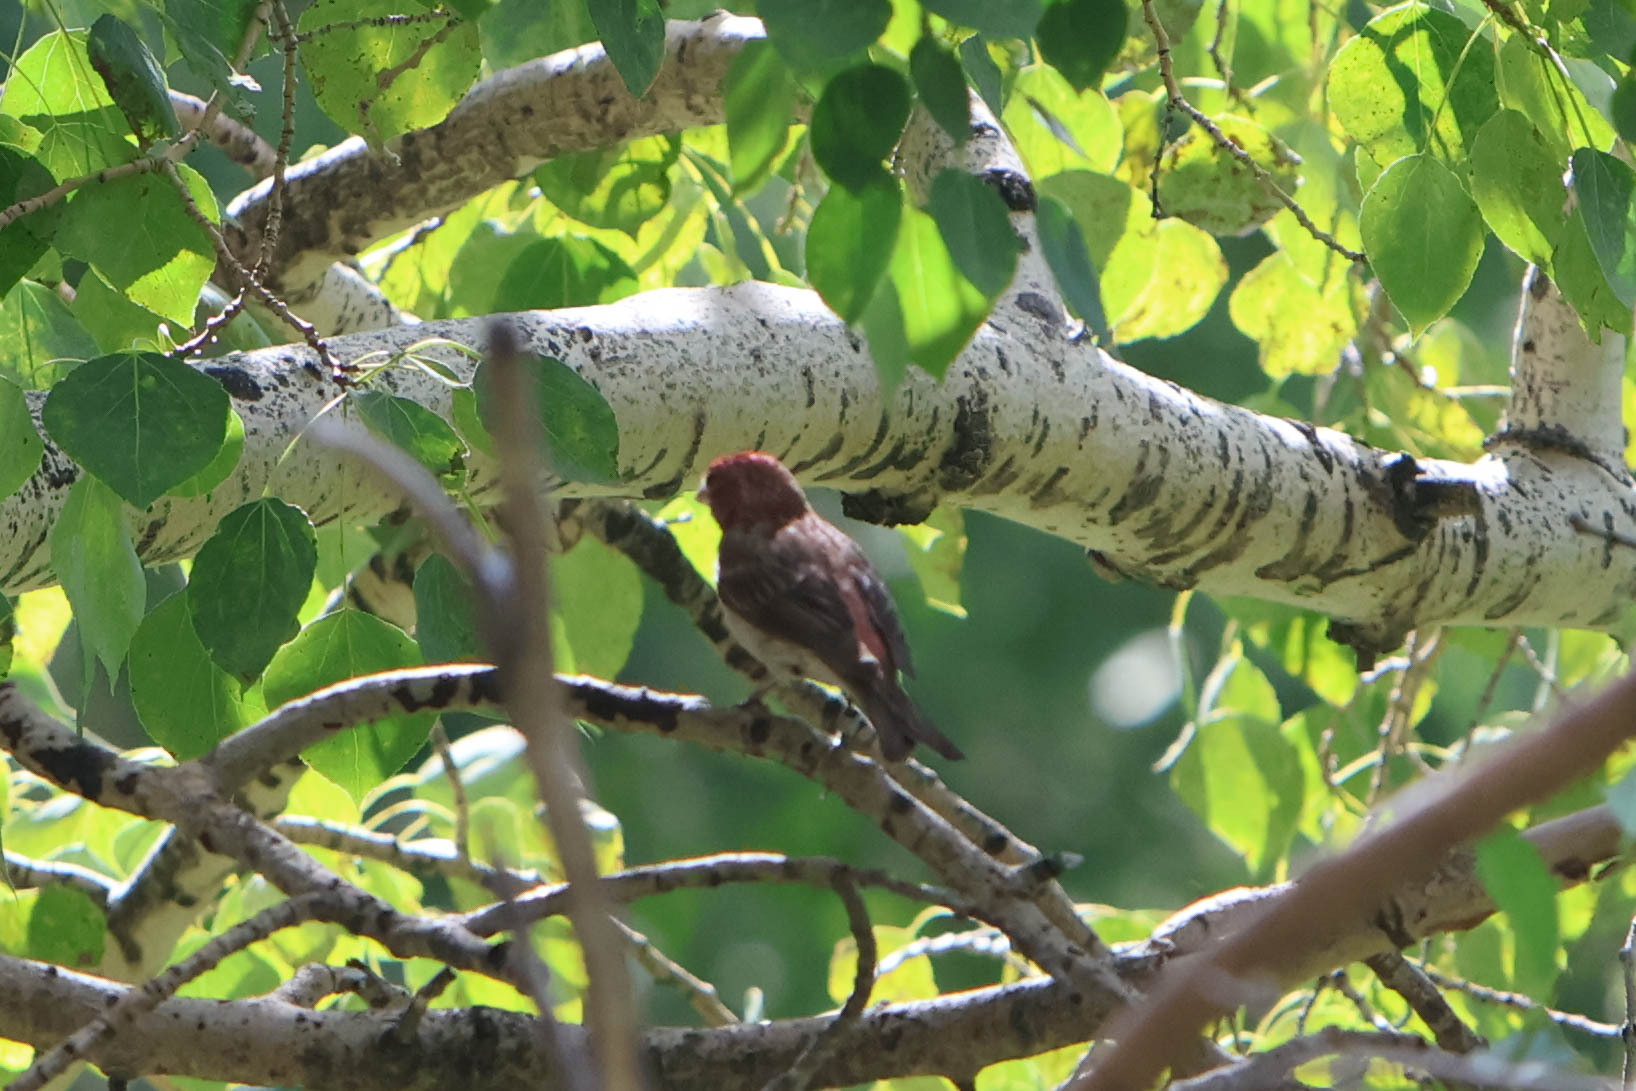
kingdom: Animalia
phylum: Chordata
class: Aves
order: Passeriformes
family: Fringillidae
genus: Haemorhous
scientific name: Haemorhous cassinii
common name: Cassin's finch
